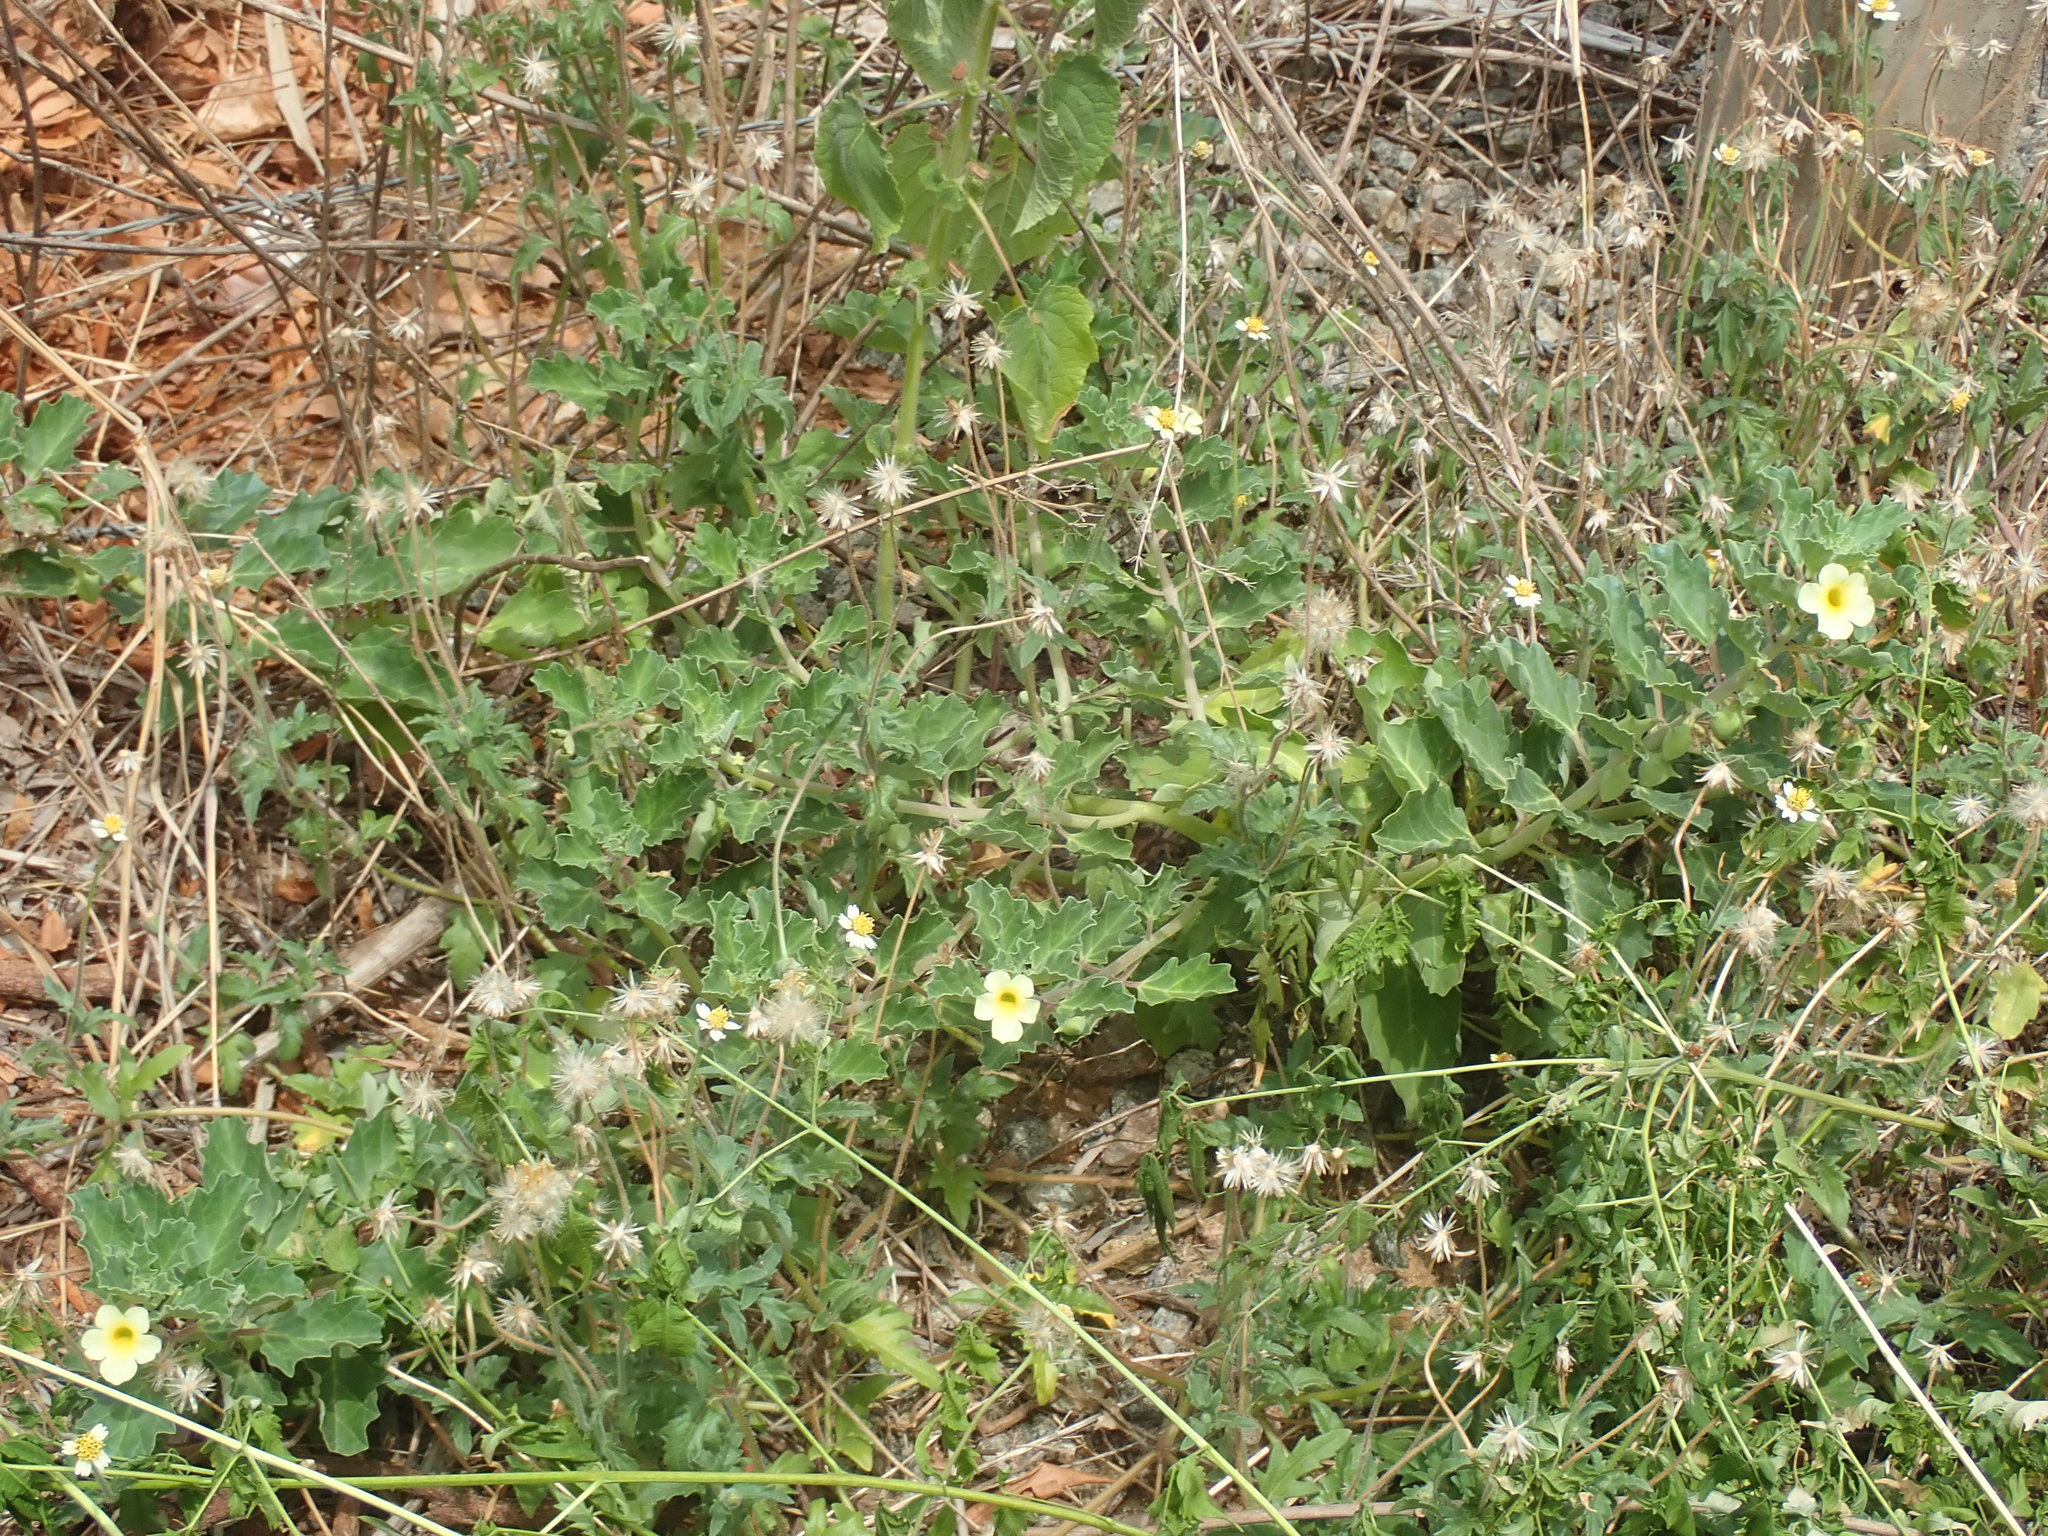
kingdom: Plantae
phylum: Tracheophyta
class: Magnoliopsida
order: Lamiales
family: Pedaliaceae
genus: Pedalium
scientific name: Pedalium murex
